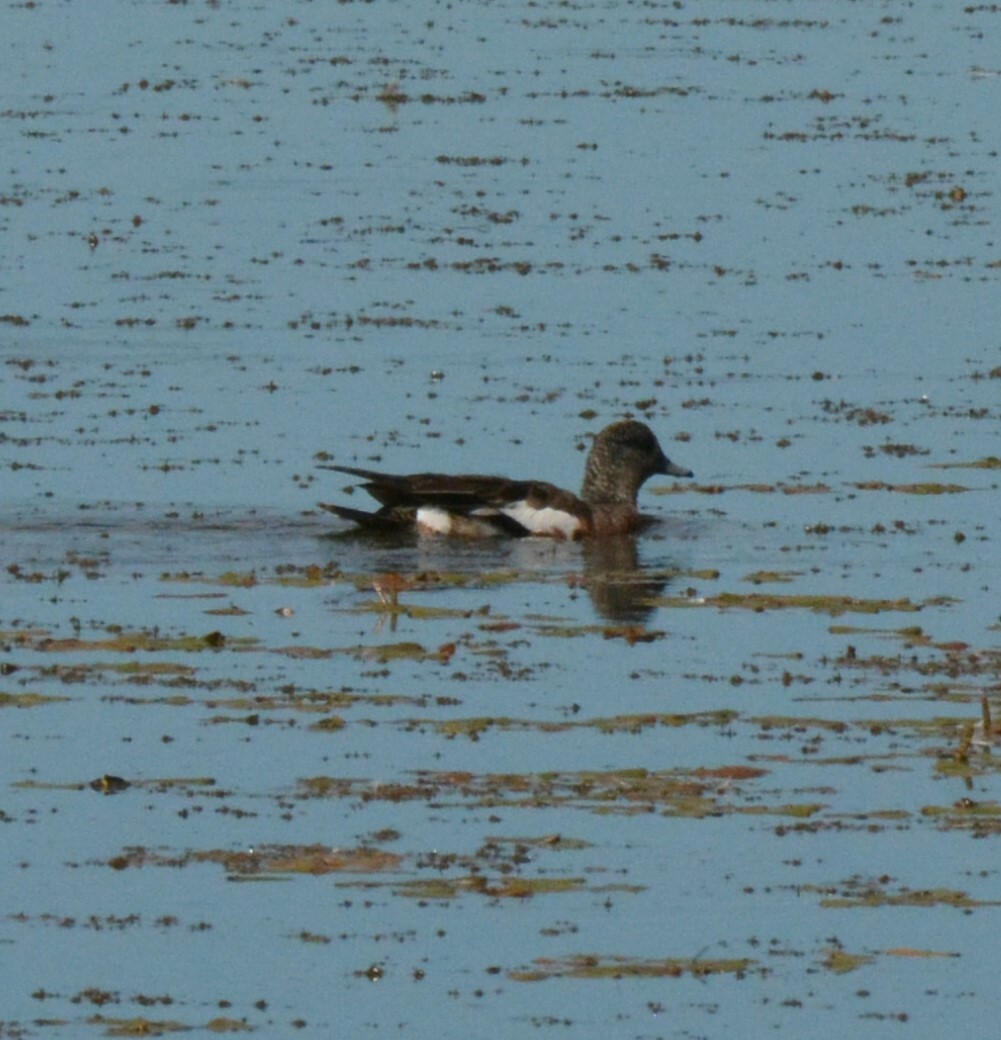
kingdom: Animalia
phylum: Chordata
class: Aves
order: Anseriformes
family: Anatidae
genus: Mareca
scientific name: Mareca americana
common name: American wigeon
